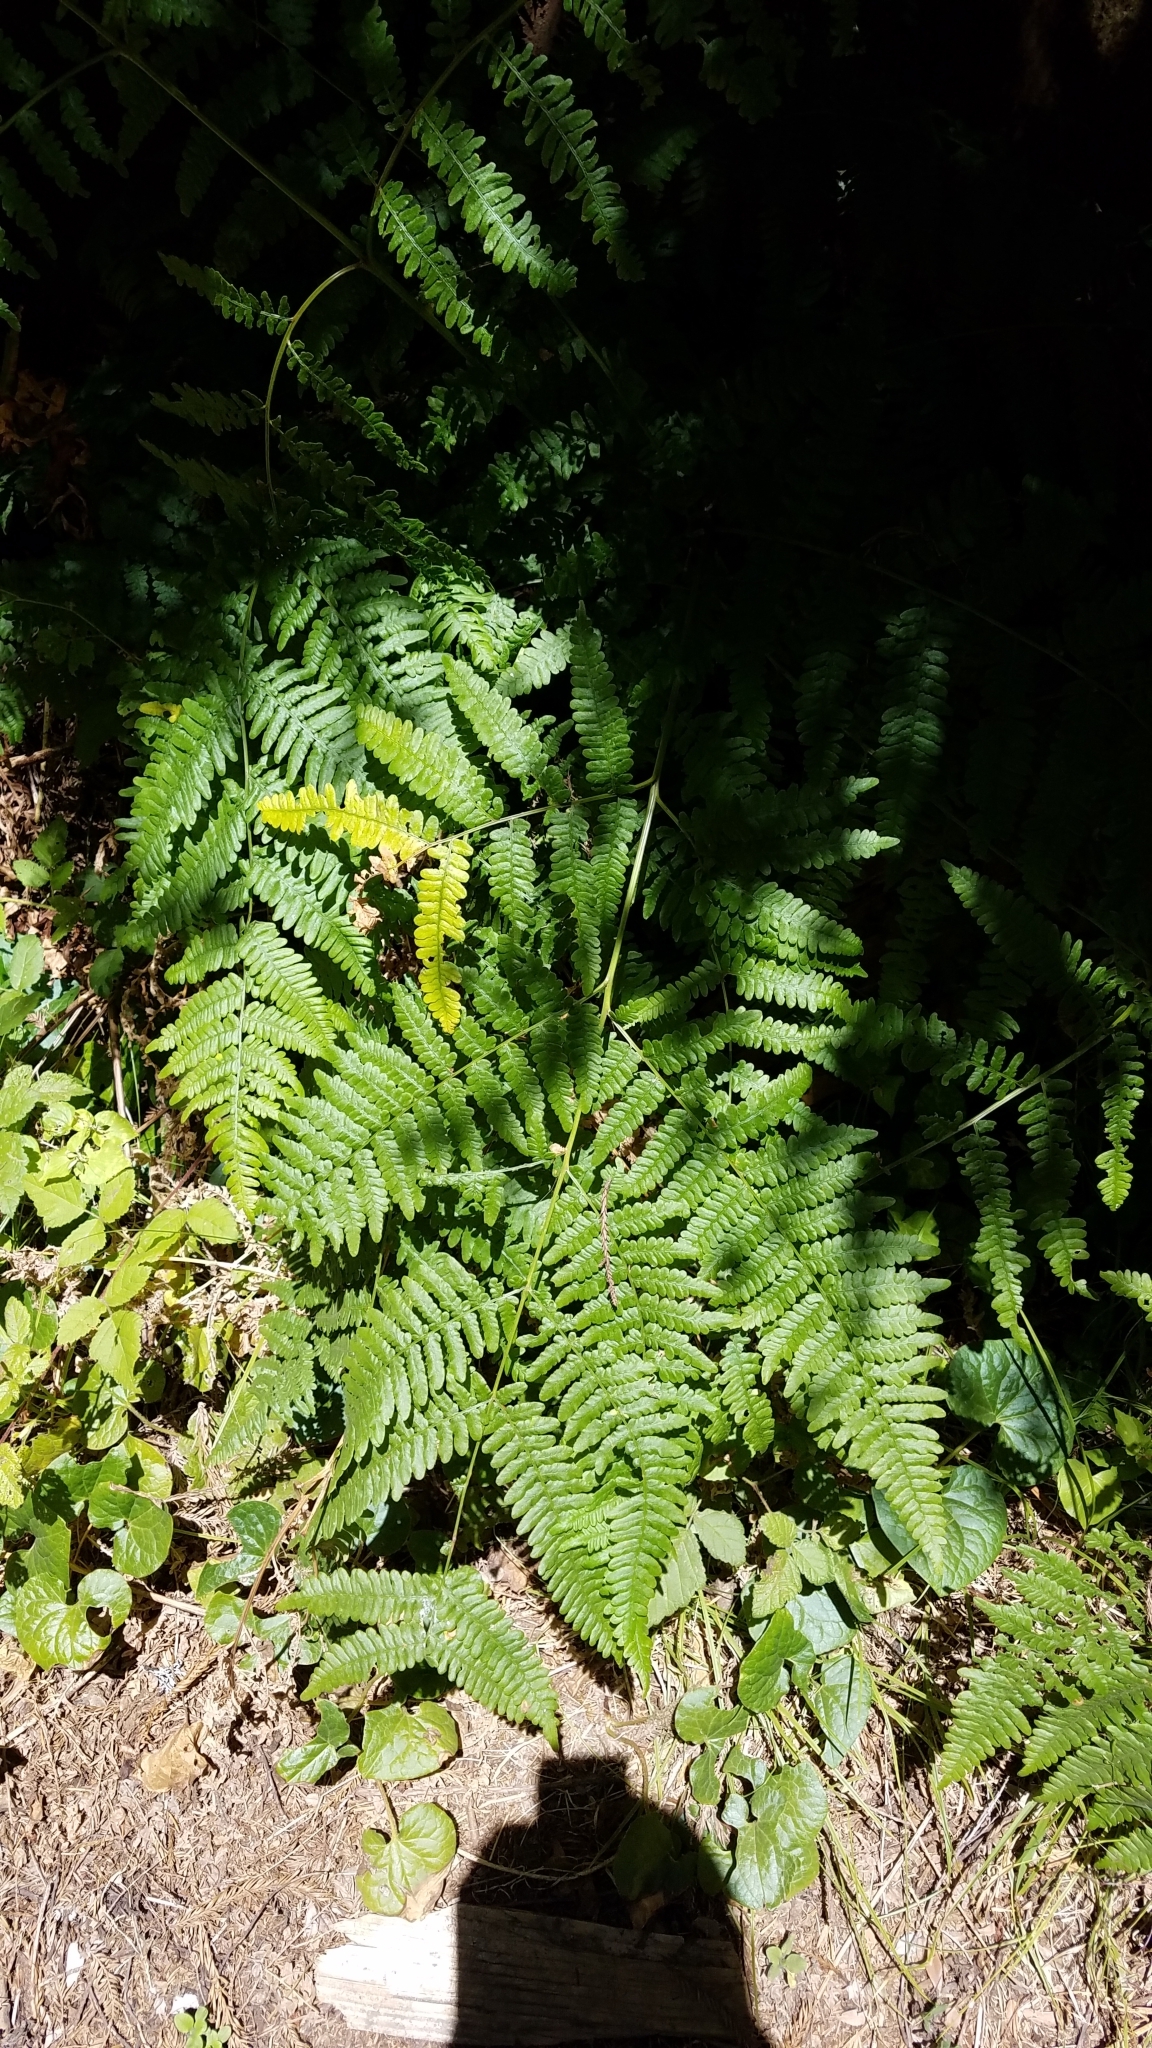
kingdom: Plantae
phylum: Tracheophyta
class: Polypodiopsida
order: Polypodiales
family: Dennstaedtiaceae
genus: Pteridium
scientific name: Pteridium aquilinum
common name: Bracken
